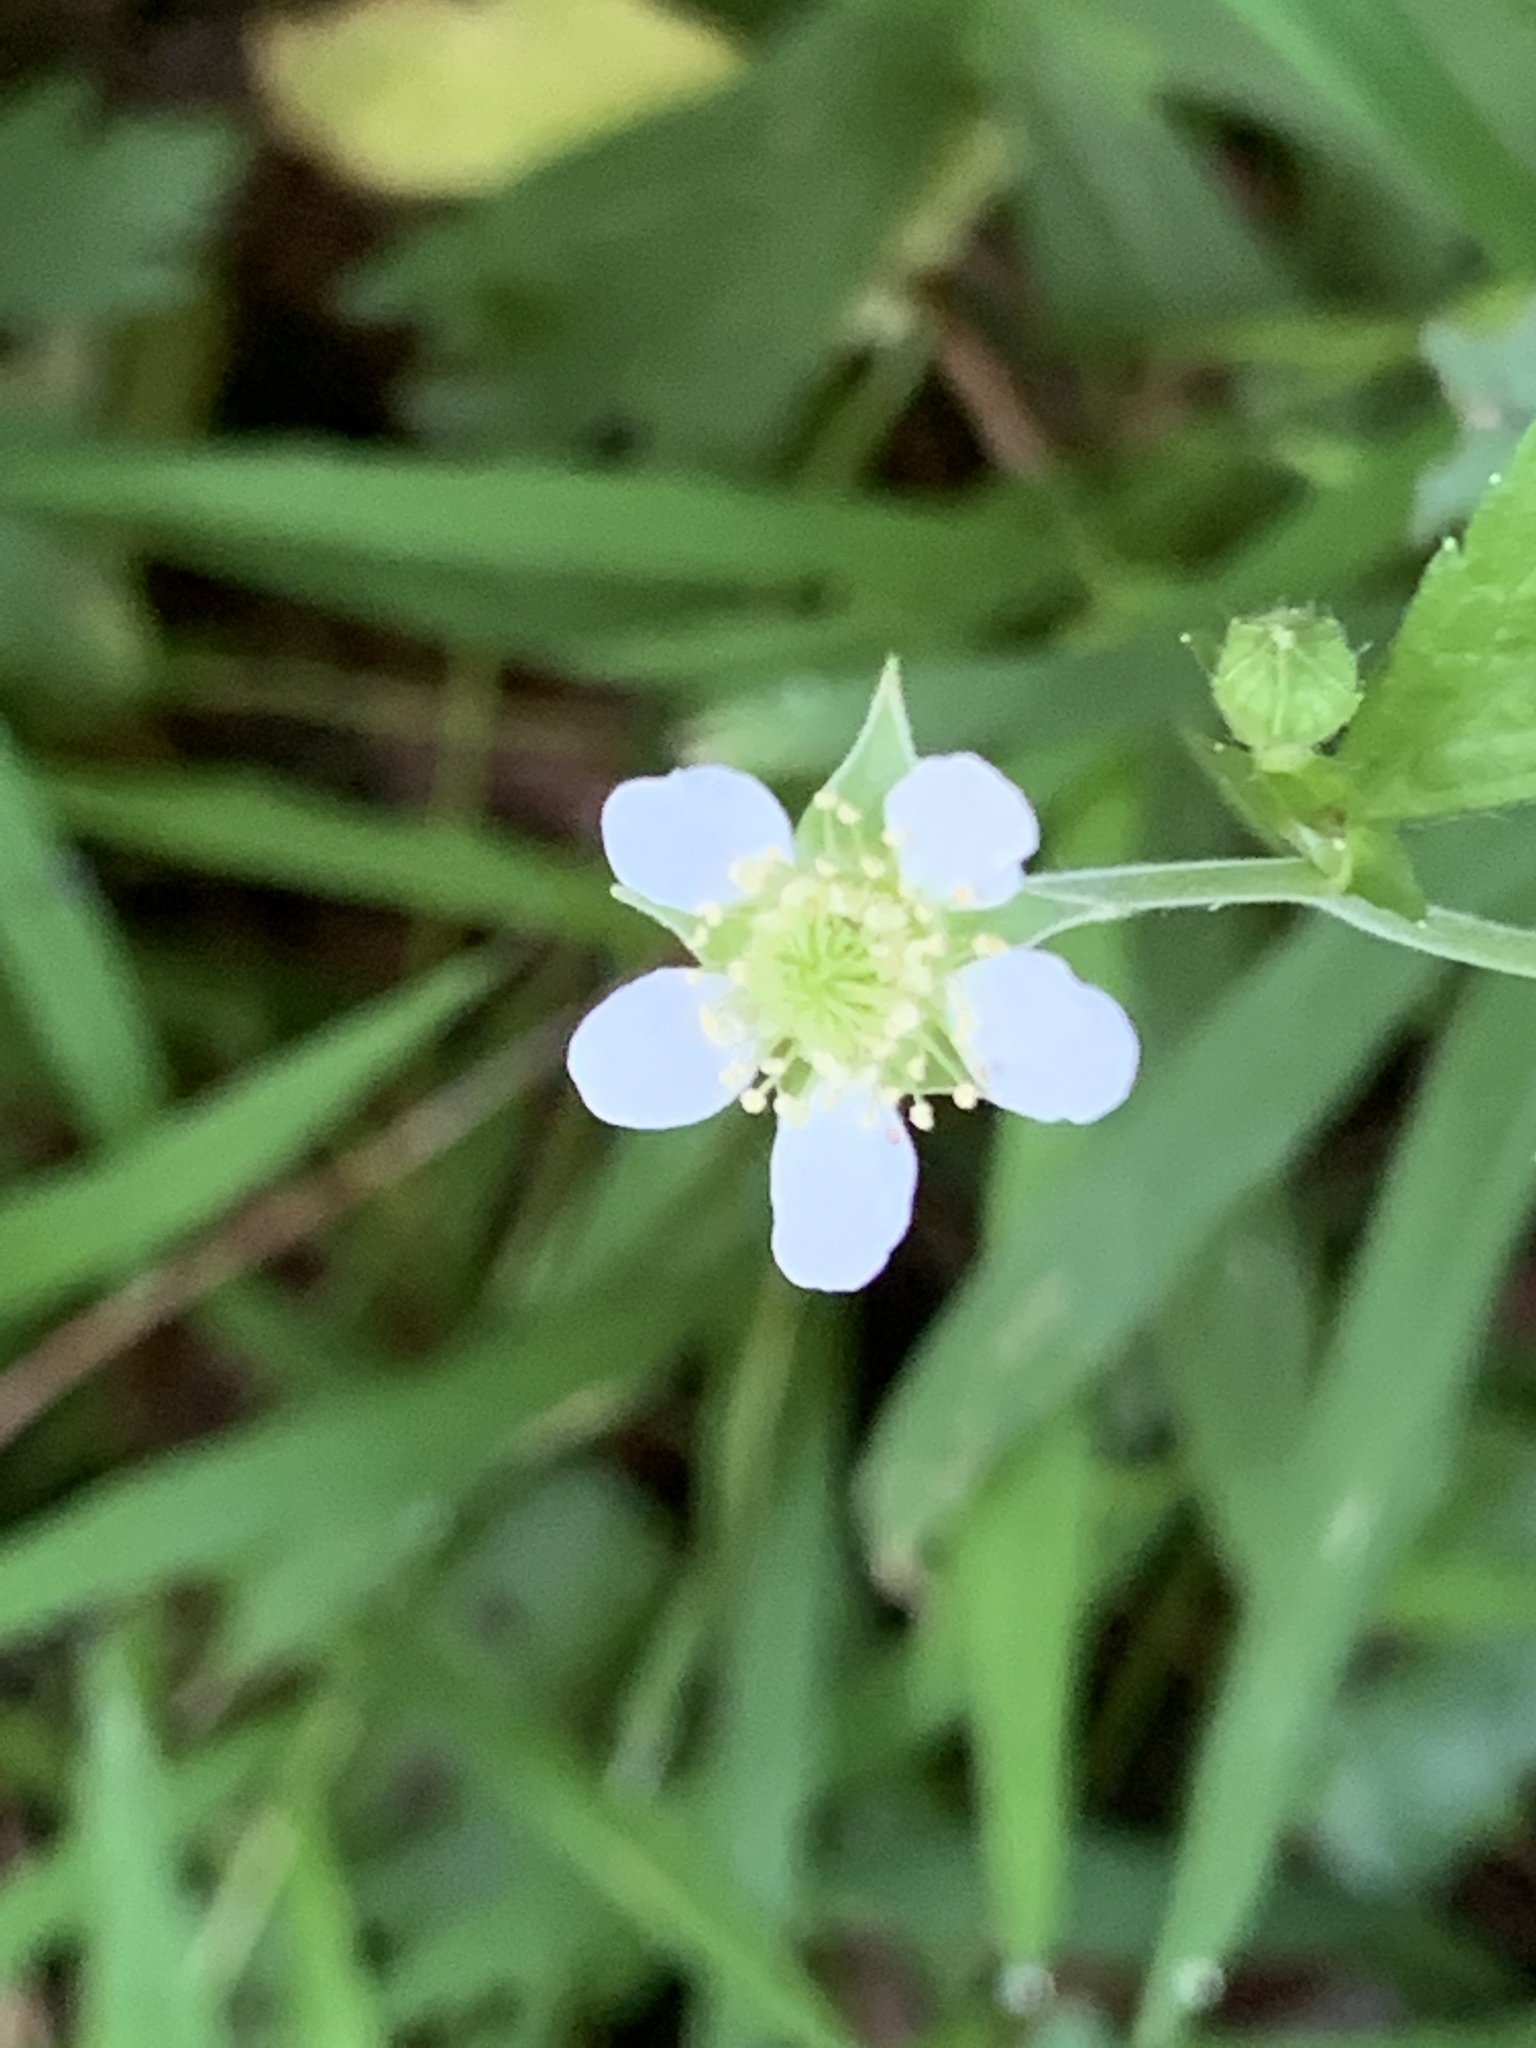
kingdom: Plantae
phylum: Tracheophyta
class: Magnoliopsida
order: Rosales
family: Rosaceae
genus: Geum
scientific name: Geum canadense
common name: White avens
